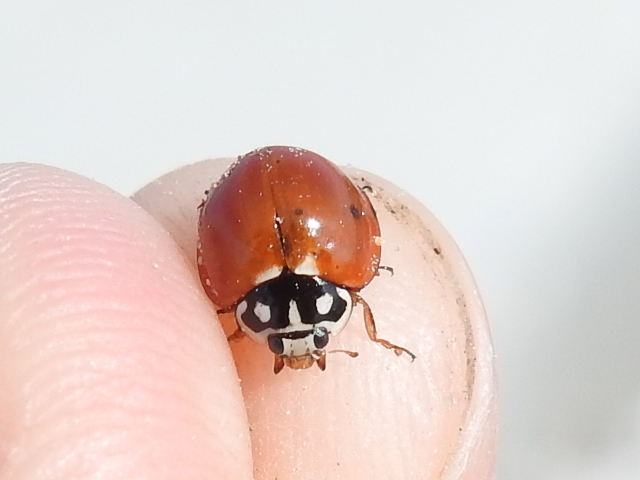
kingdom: Animalia
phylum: Arthropoda
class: Insecta
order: Coleoptera
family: Coccinellidae
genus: Cycloneda
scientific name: Cycloneda sanguinea
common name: Ladybird beetle
